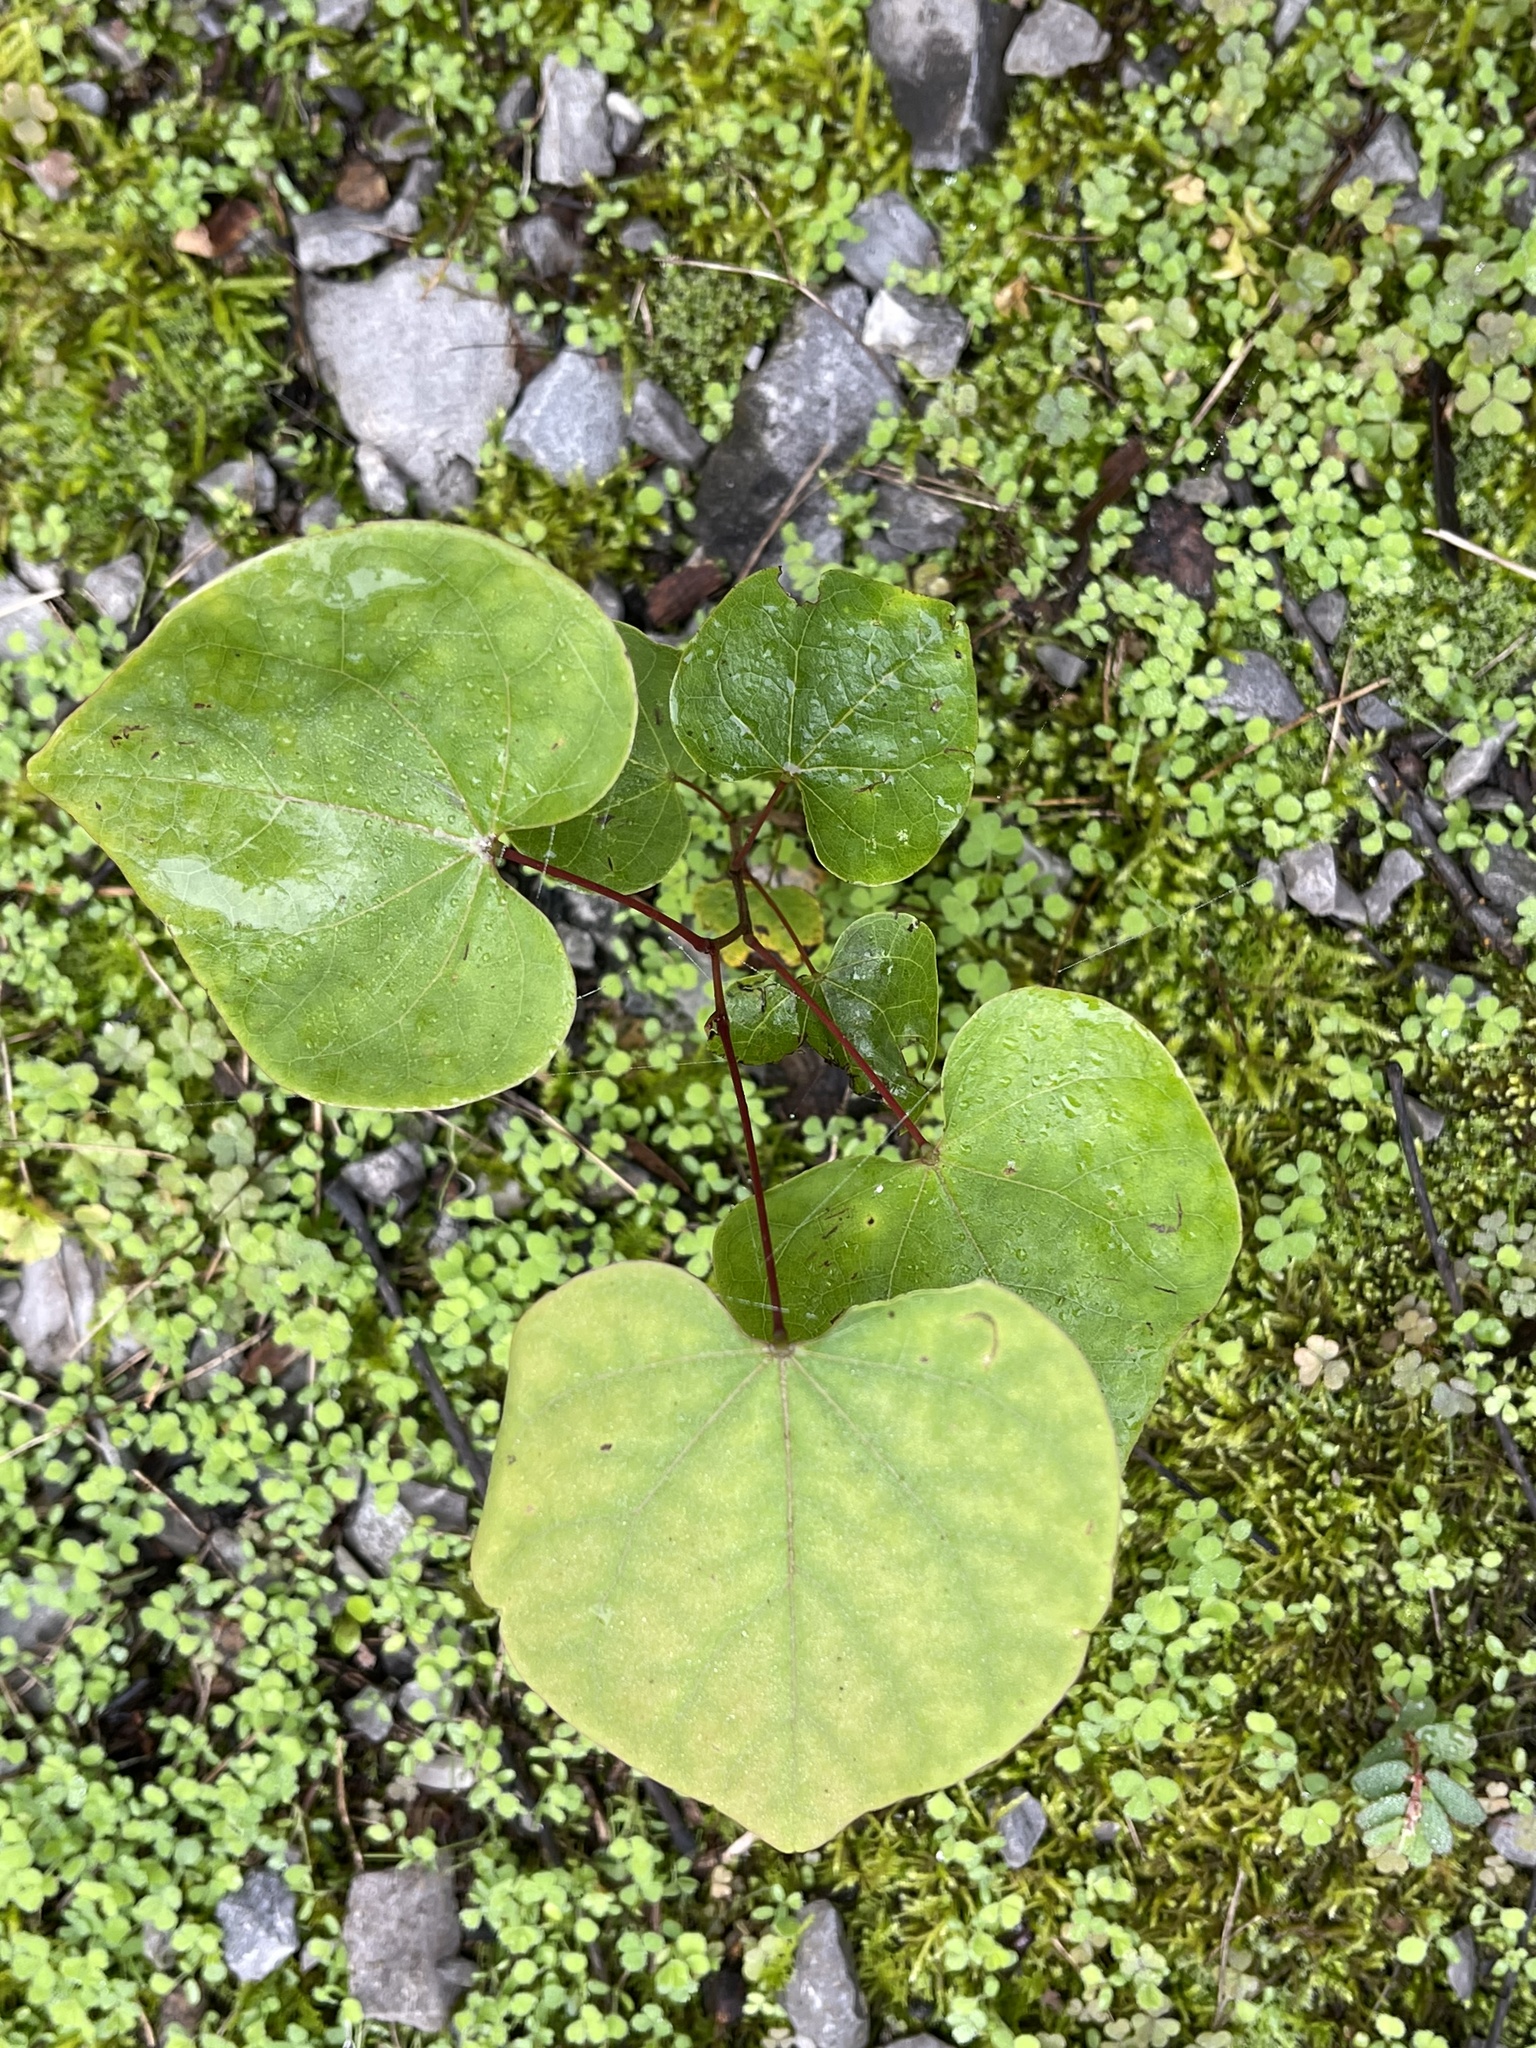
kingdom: Plantae
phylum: Tracheophyta
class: Magnoliopsida
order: Fabales
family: Fabaceae
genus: Cercis
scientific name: Cercis canadensis
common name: Eastern redbud
